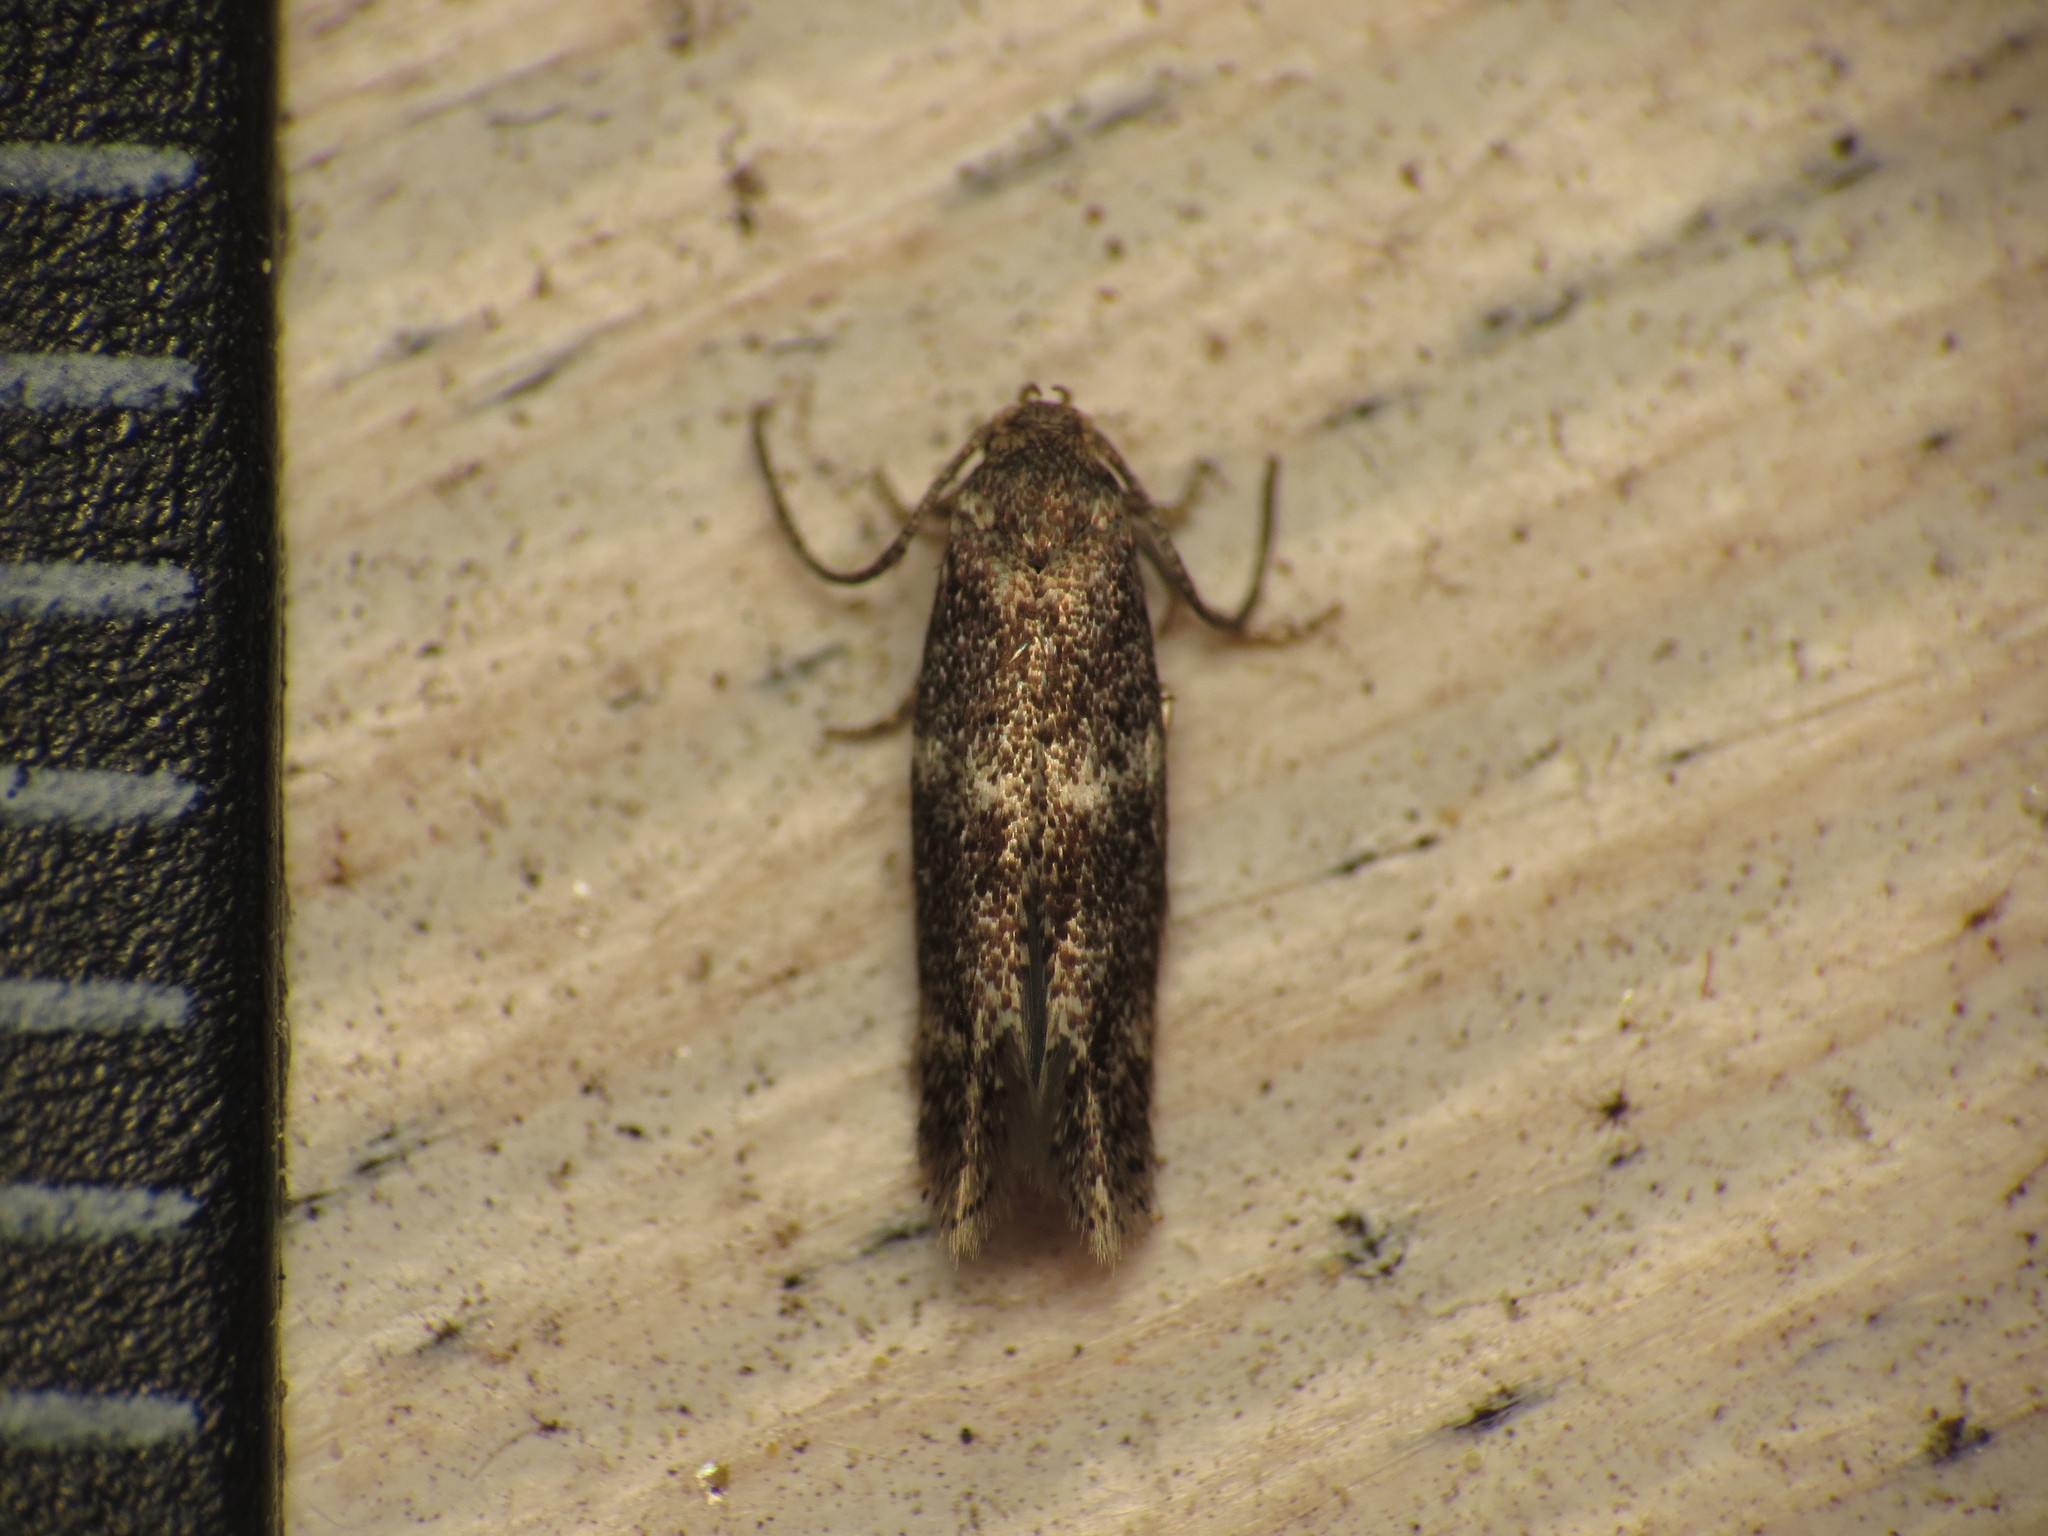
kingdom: Animalia
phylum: Arthropoda
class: Insecta
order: Lepidoptera
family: Elachistidae
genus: Elachista
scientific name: Elachista freyerella
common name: Broken-barred dwarf
